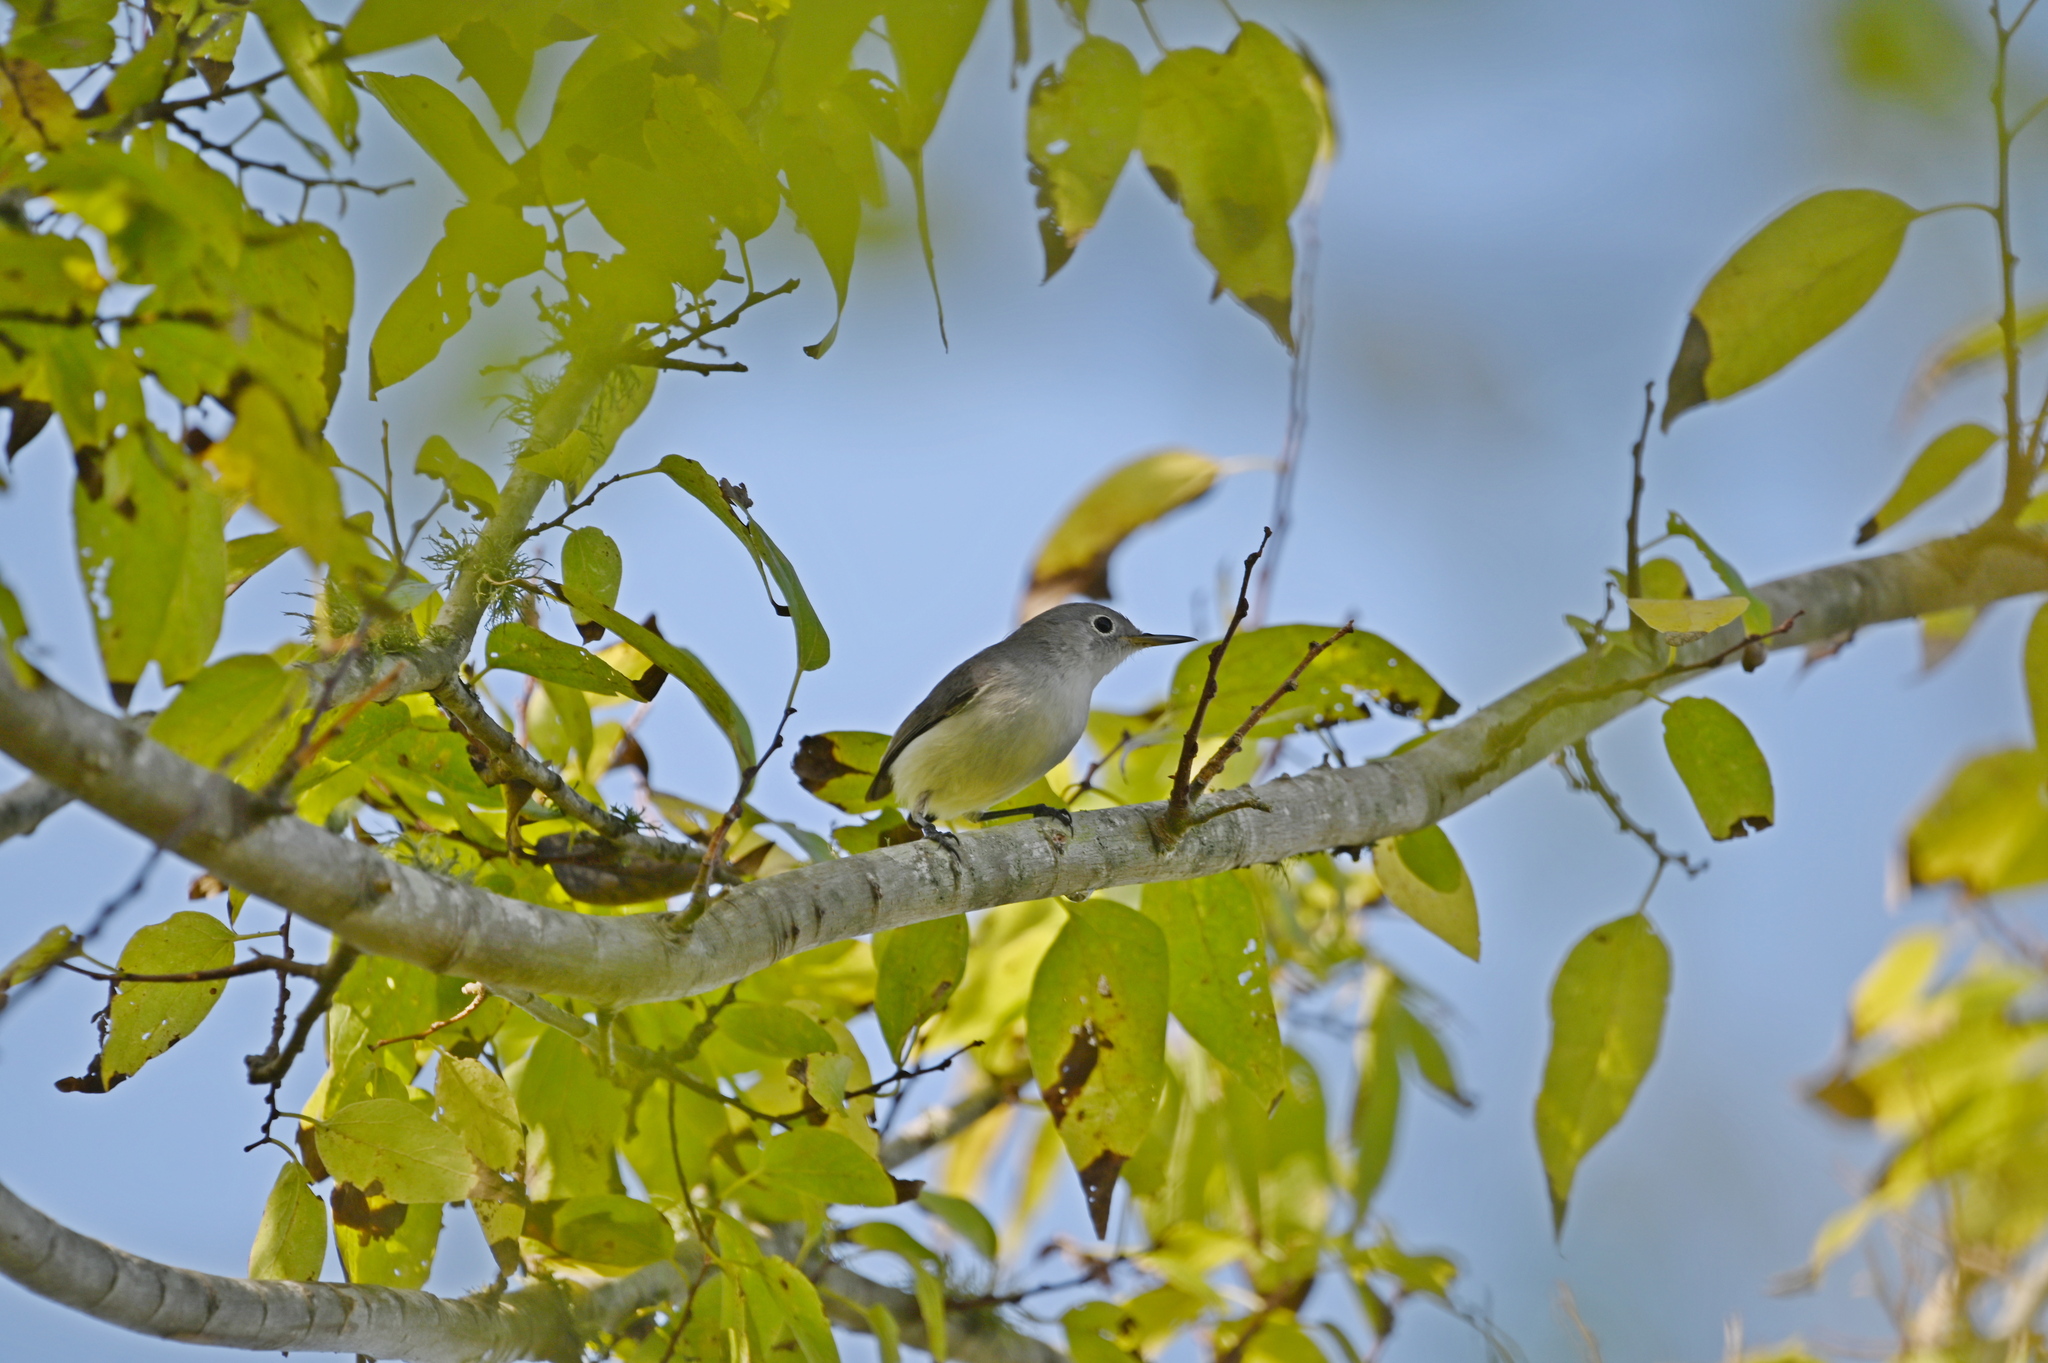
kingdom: Animalia
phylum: Chordata
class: Aves
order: Passeriformes
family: Polioptilidae
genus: Polioptila
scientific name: Polioptila caerulea
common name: Blue-gray gnatcatcher
